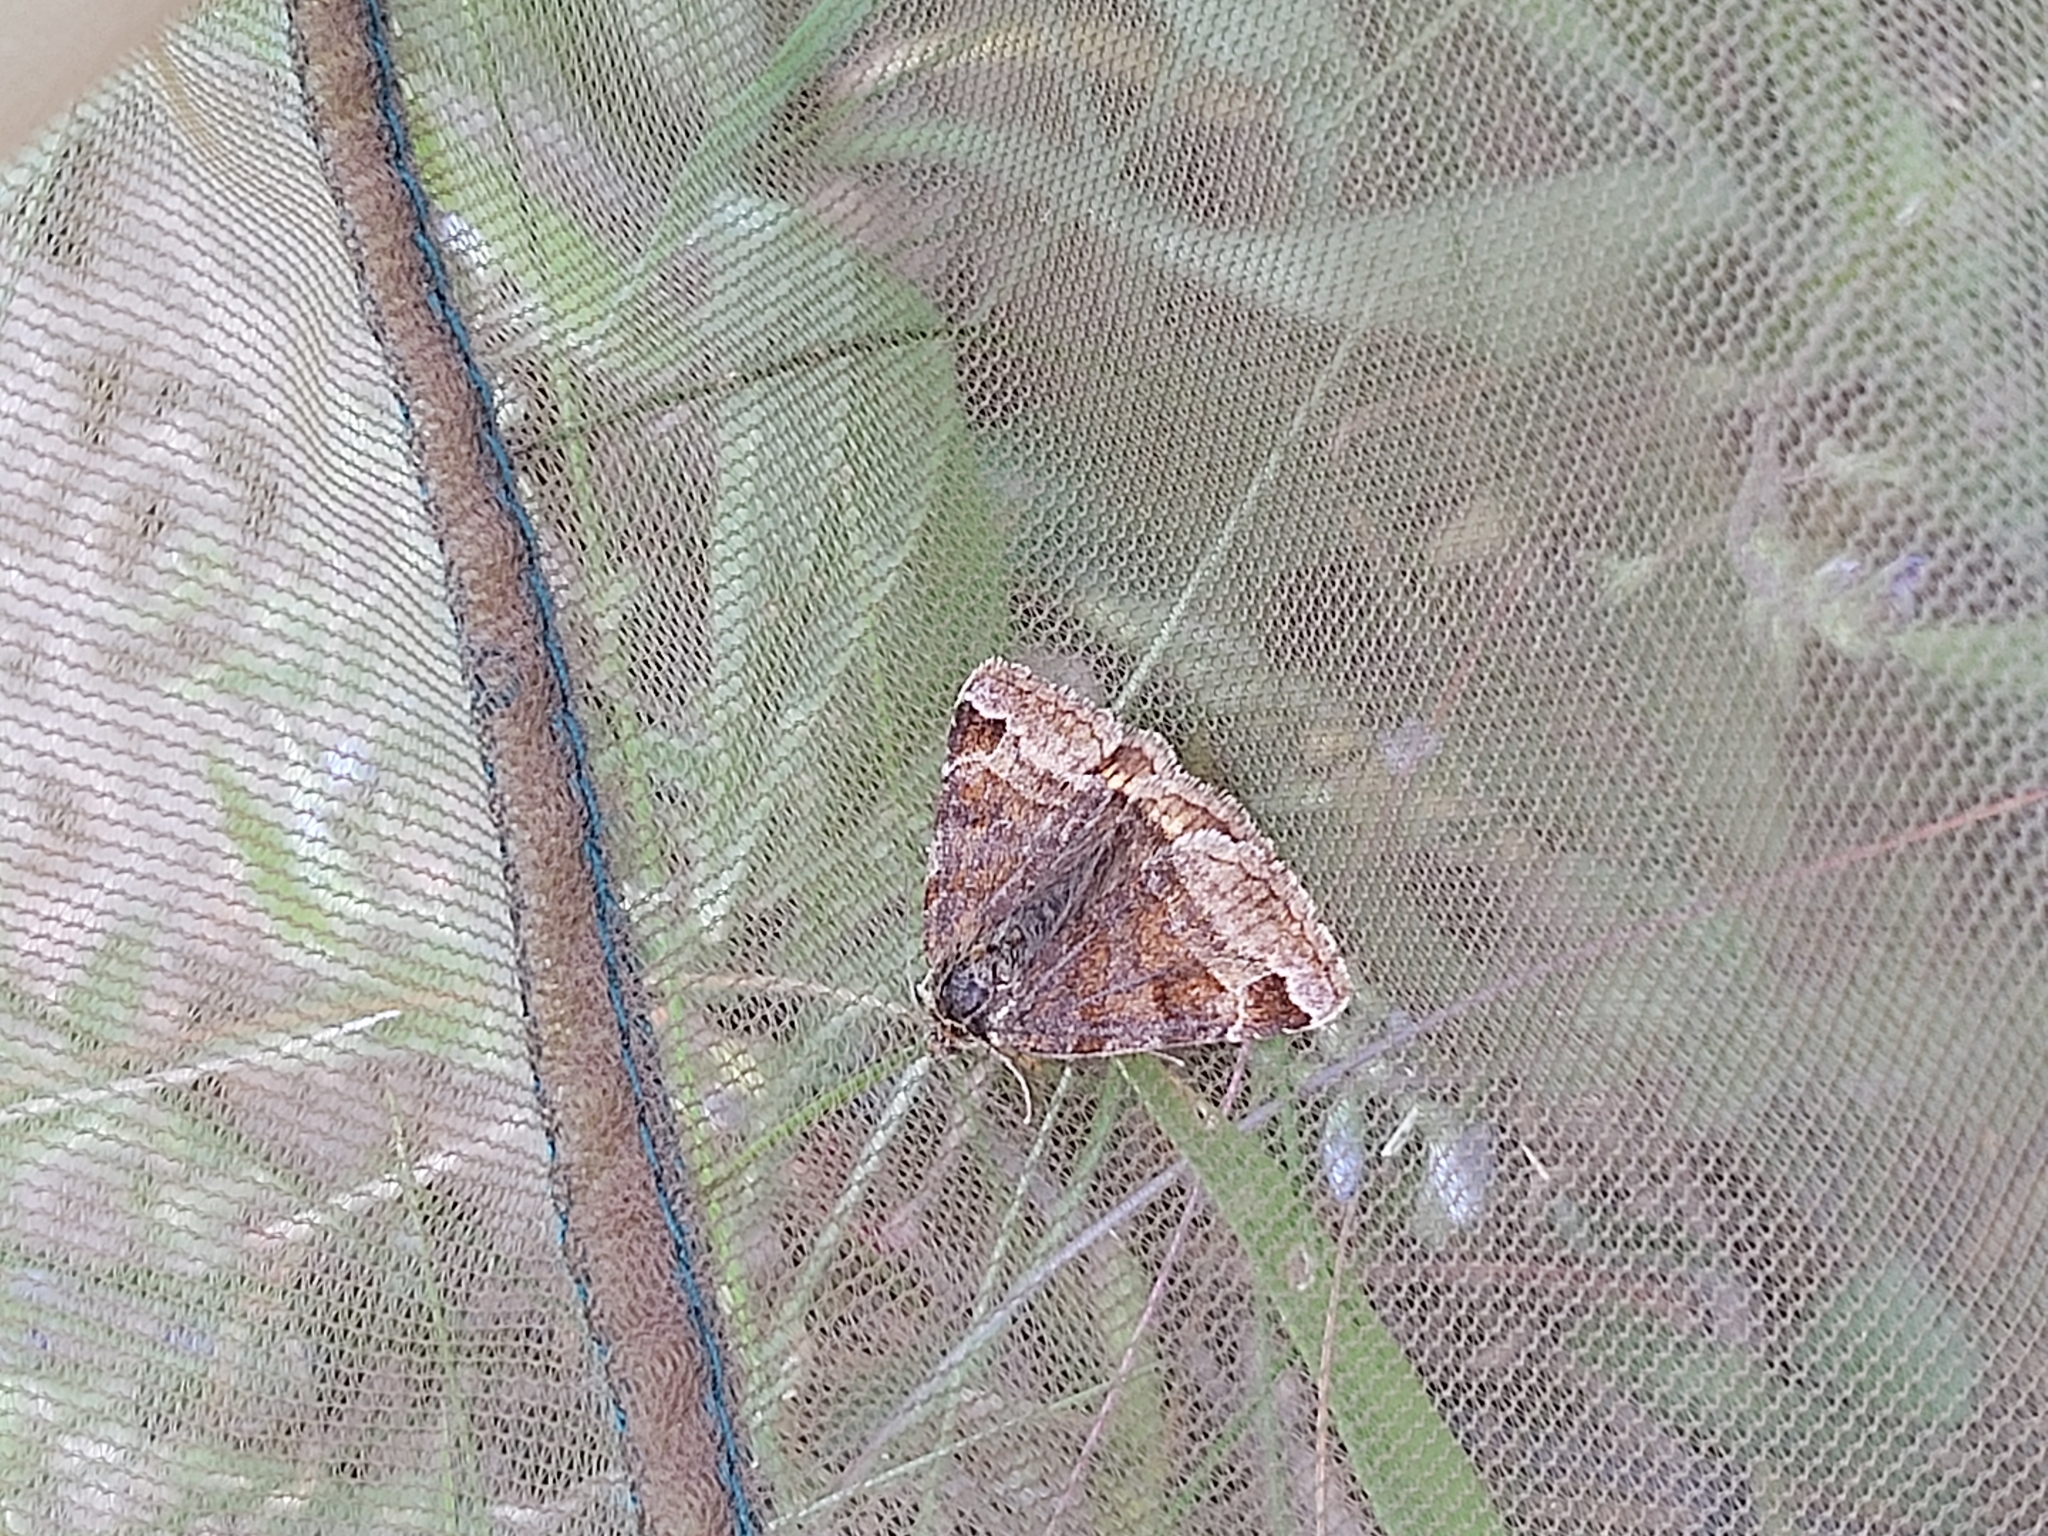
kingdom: Animalia
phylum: Arthropoda
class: Insecta
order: Lepidoptera
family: Erebidae
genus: Euclidia
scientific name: Euclidia glyphica
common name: Burnet companion
